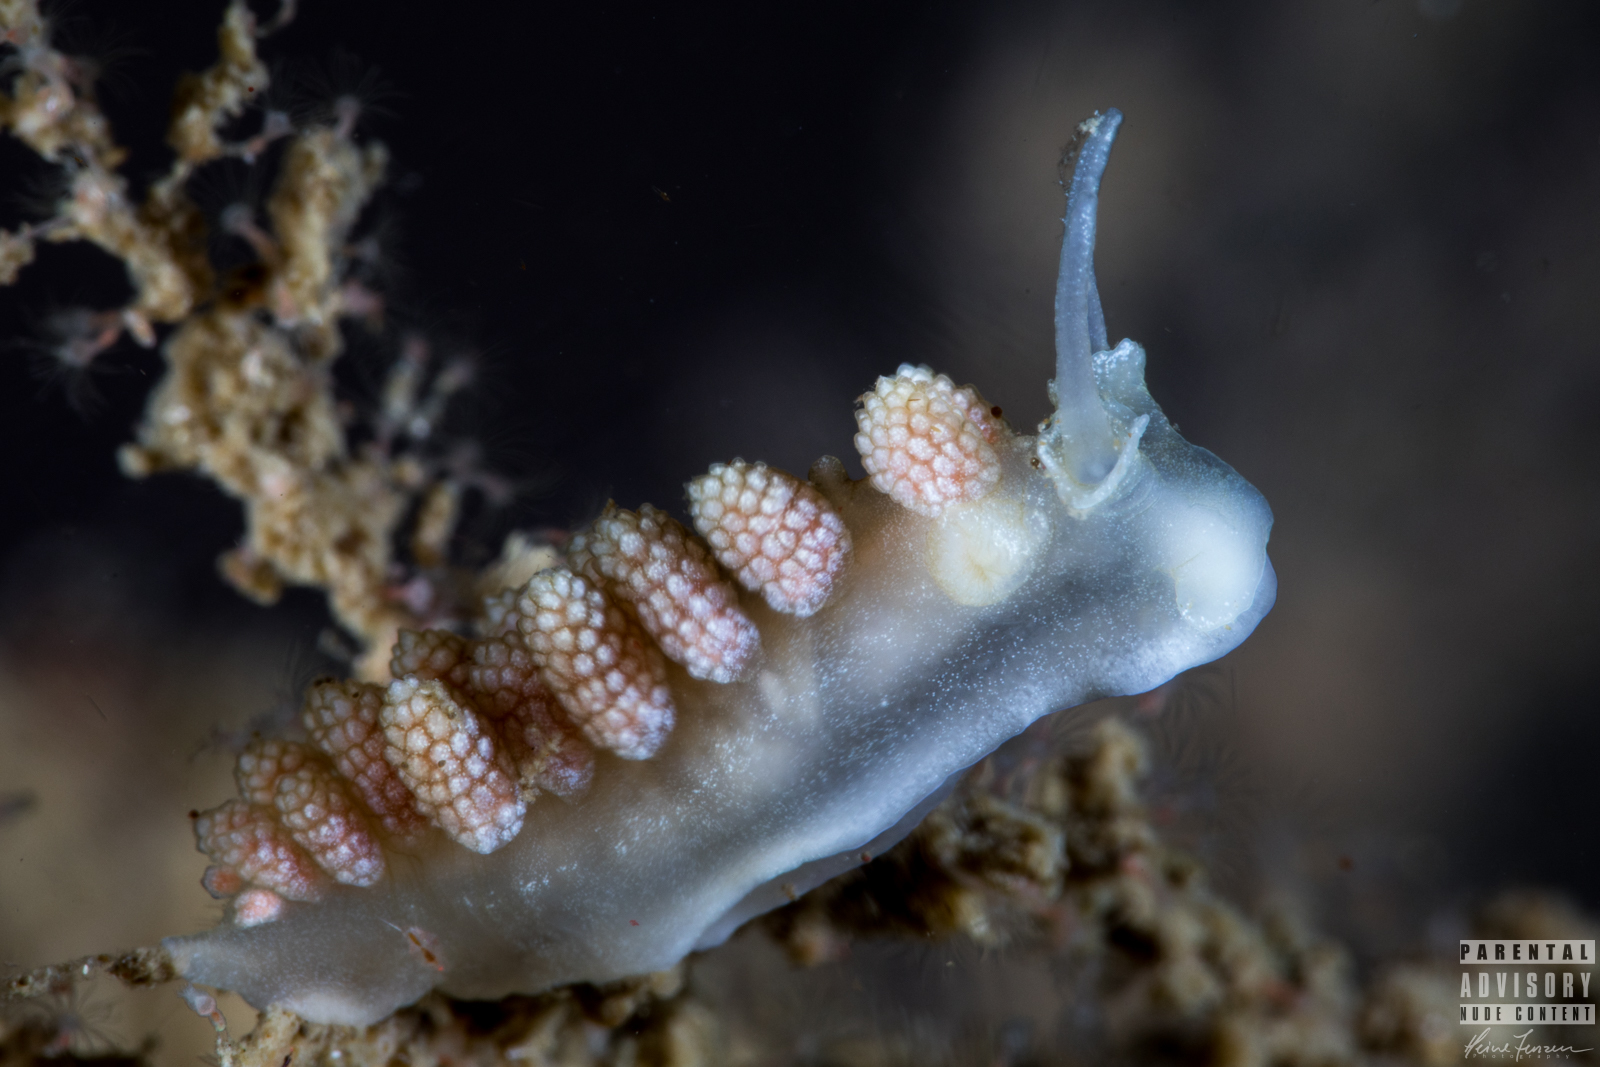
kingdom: Animalia
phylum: Mollusca
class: Gastropoda
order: Nudibranchia
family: Dotidae
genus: Doto
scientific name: Doto fragilis
